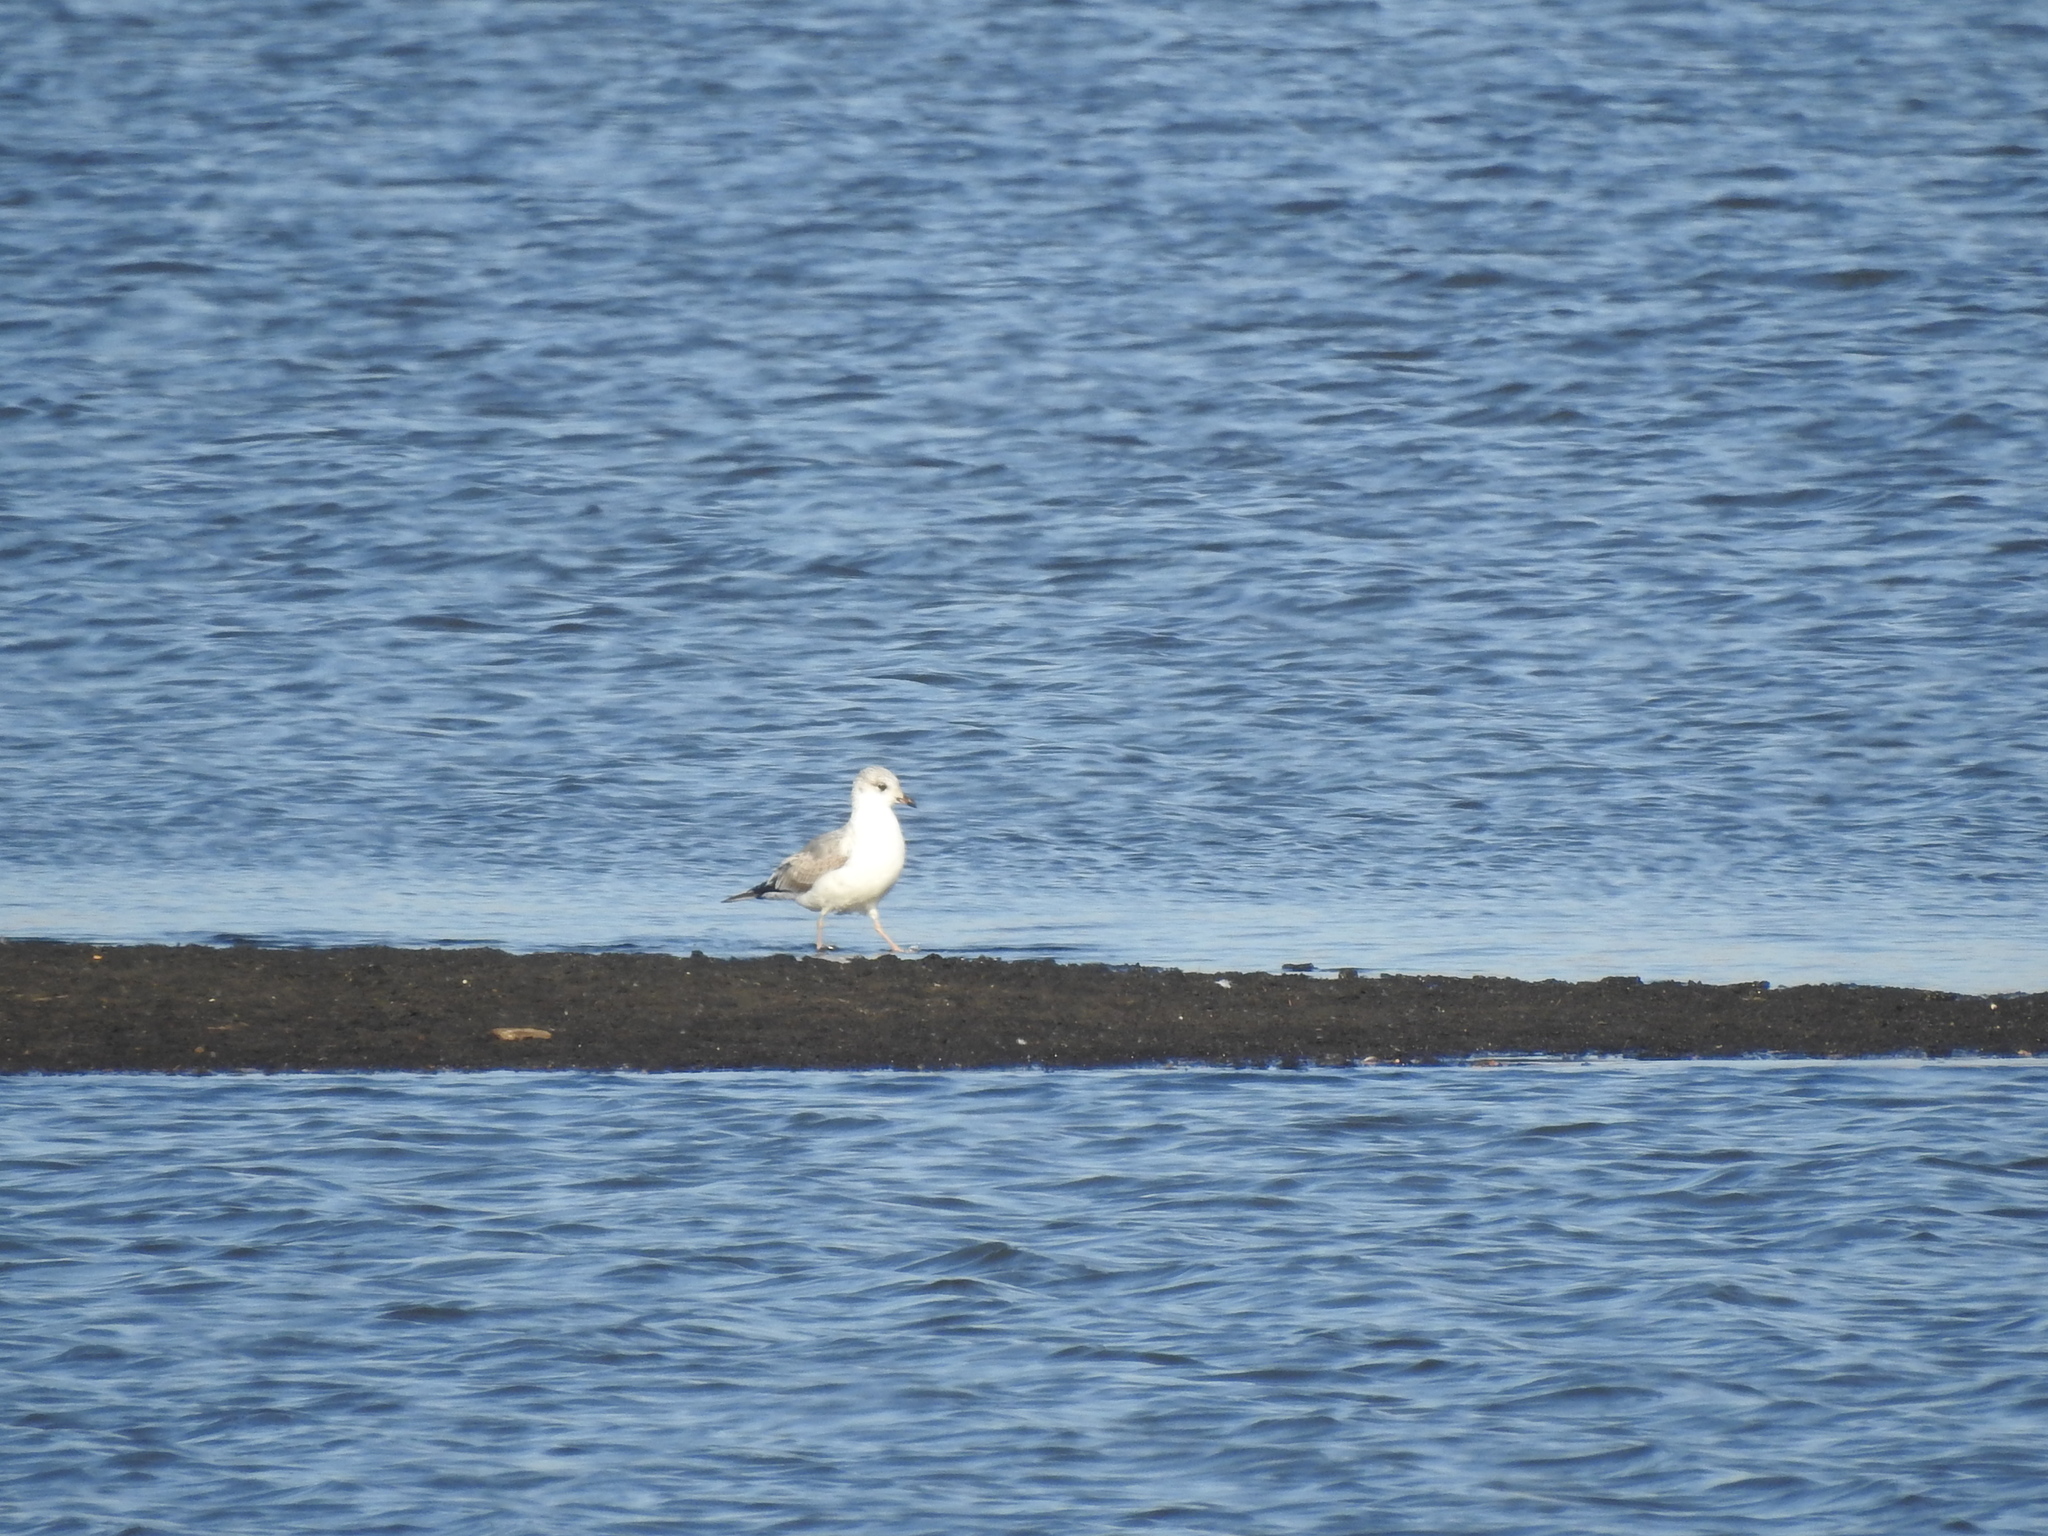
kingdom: Animalia
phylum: Chordata
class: Aves
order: Charadriiformes
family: Laridae
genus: Larus
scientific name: Larus canus
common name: Mew gull
